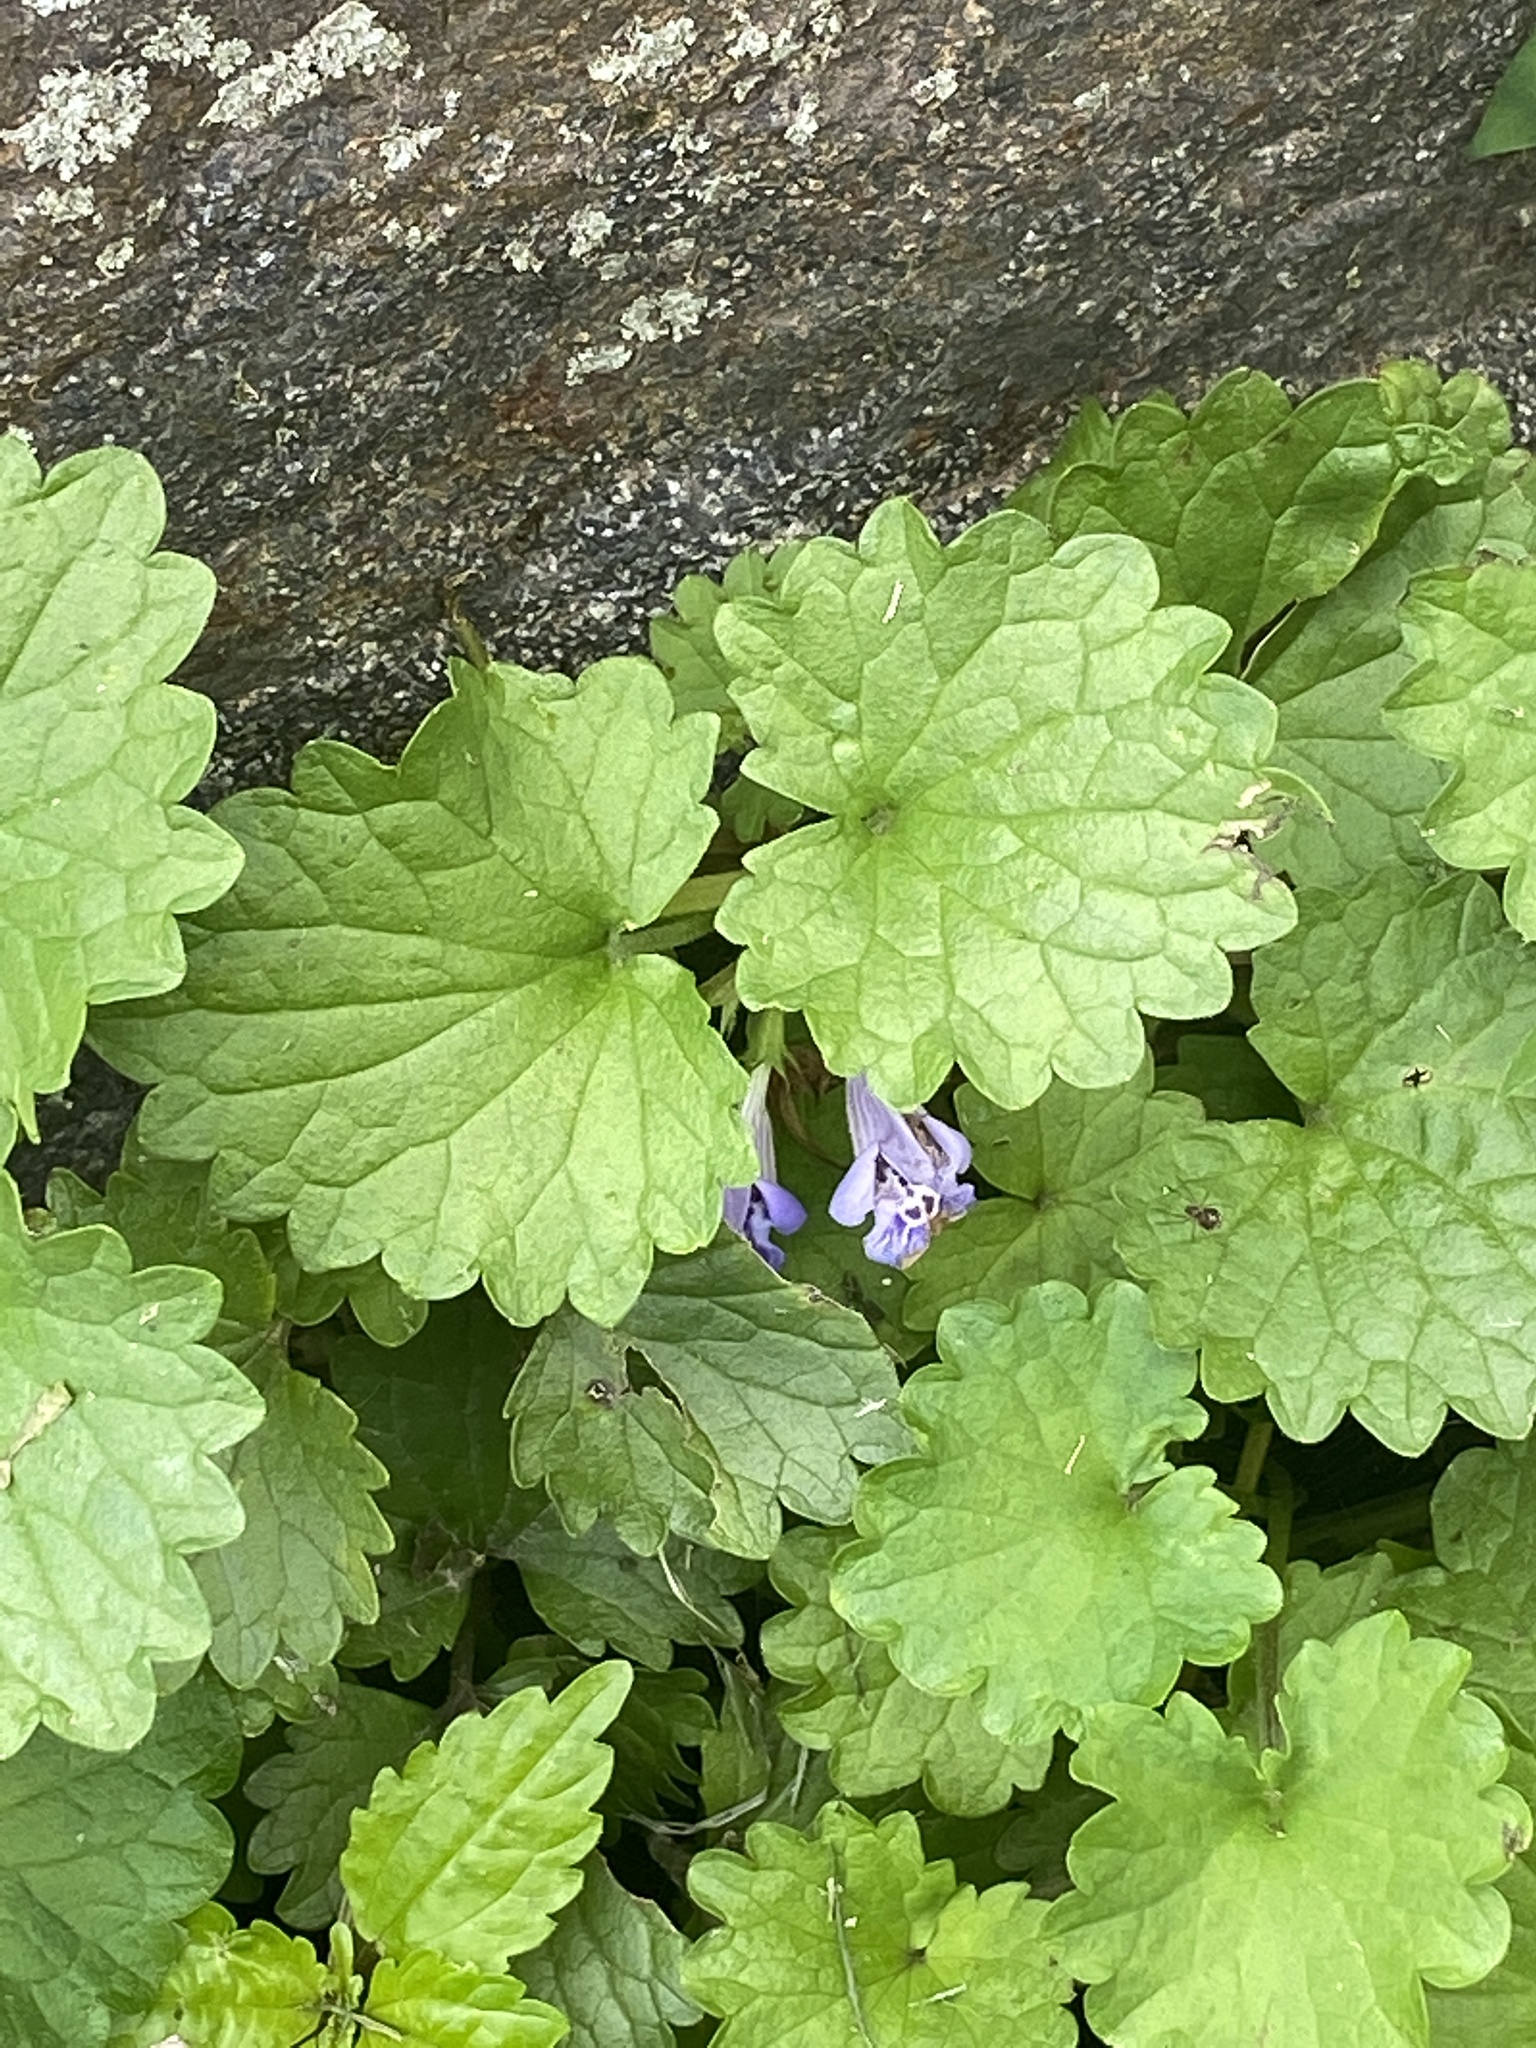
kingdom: Plantae
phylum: Tracheophyta
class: Magnoliopsida
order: Lamiales
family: Lamiaceae
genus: Glechoma
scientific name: Glechoma hederacea
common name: Ground ivy
